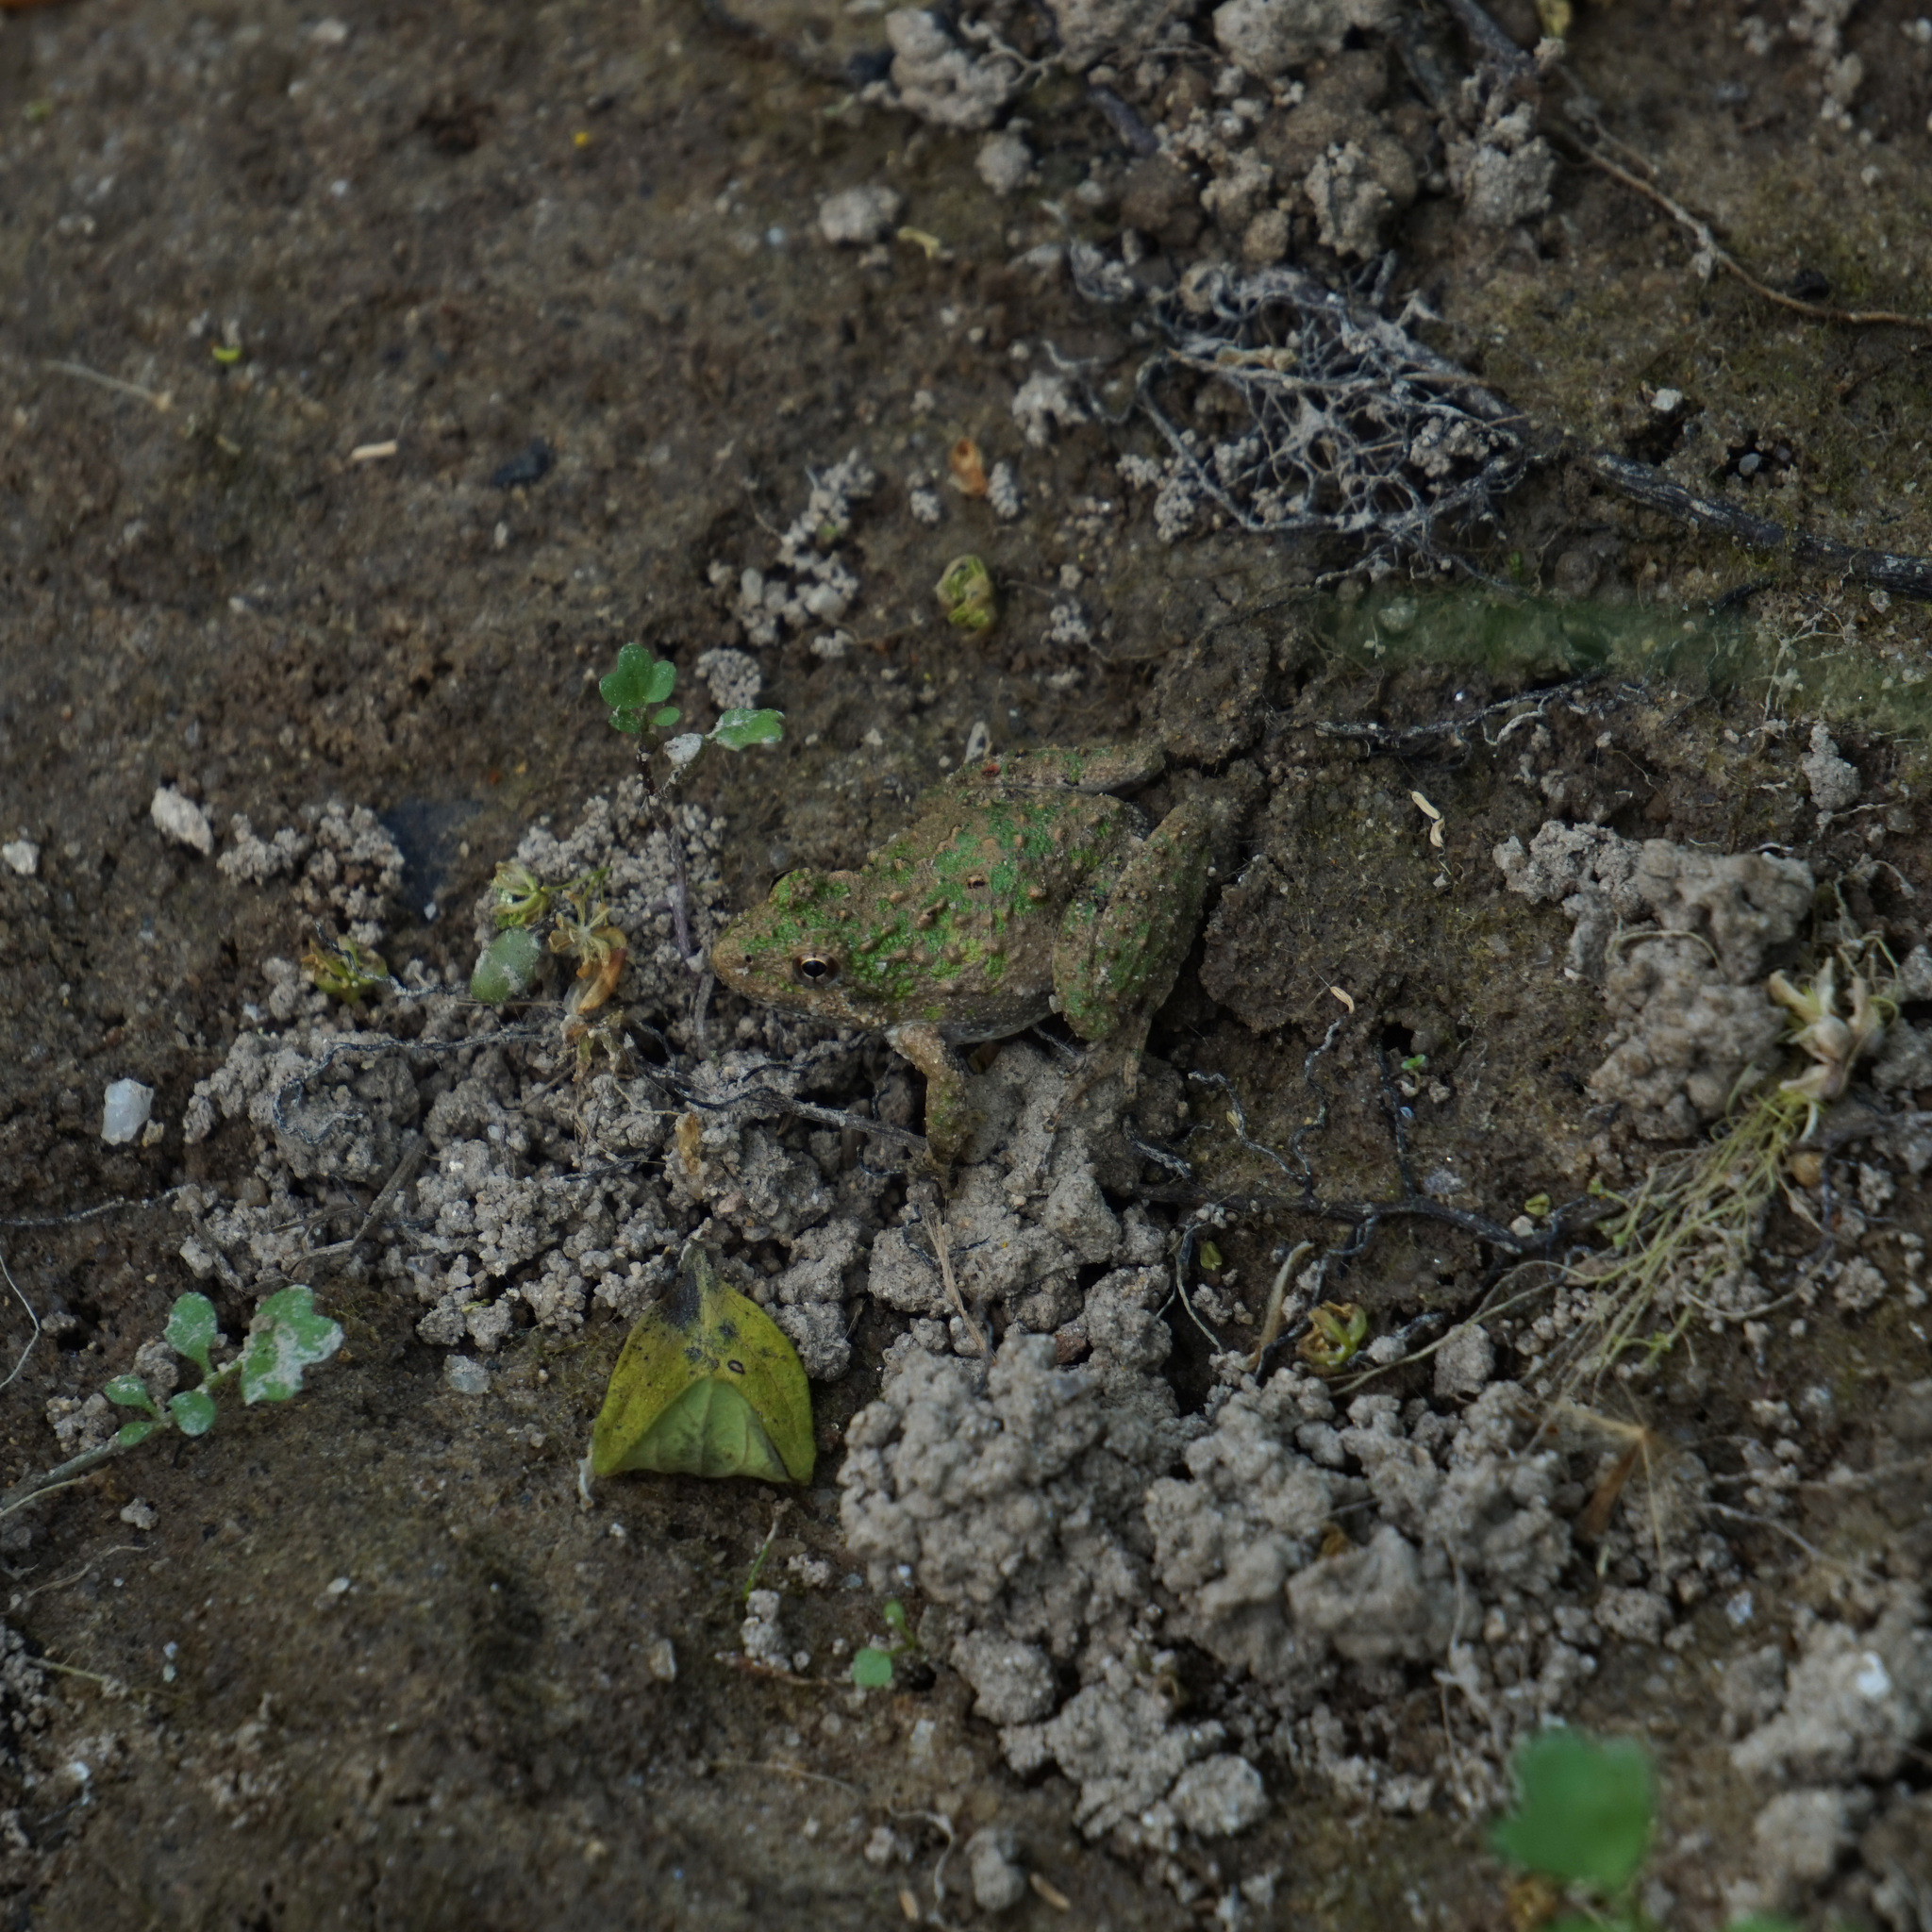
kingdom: Animalia
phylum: Chordata
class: Amphibia
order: Anura
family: Hylidae
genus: Acris
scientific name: Acris crepitans
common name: Northern cricket frog
